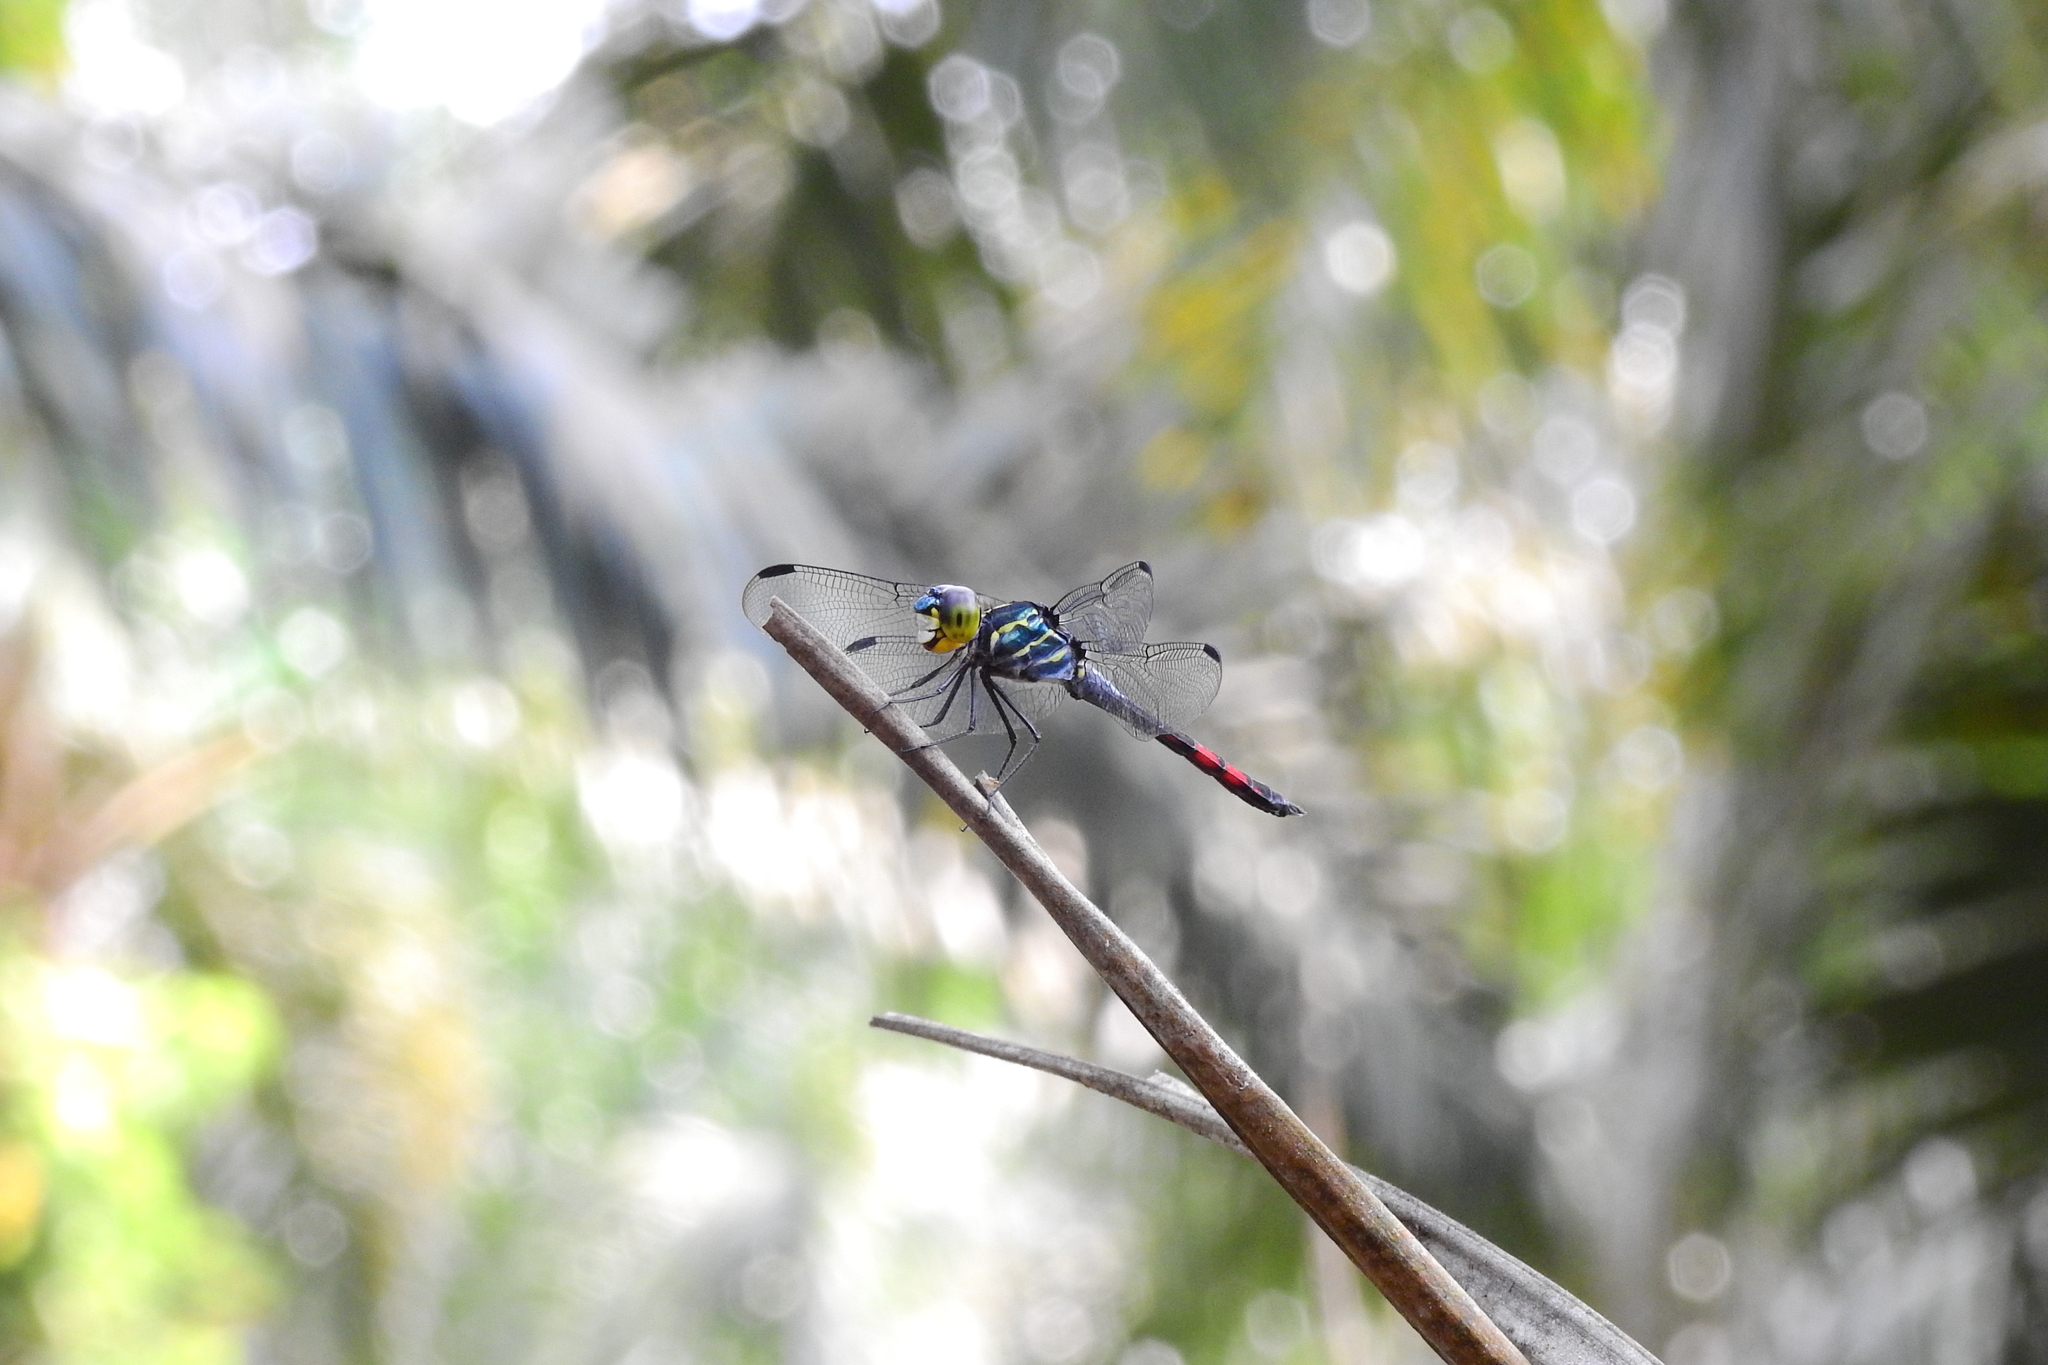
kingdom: Animalia
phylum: Arthropoda
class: Insecta
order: Odonata
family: Libellulidae
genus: Agrionoptera
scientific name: Agrionoptera sexlineata
